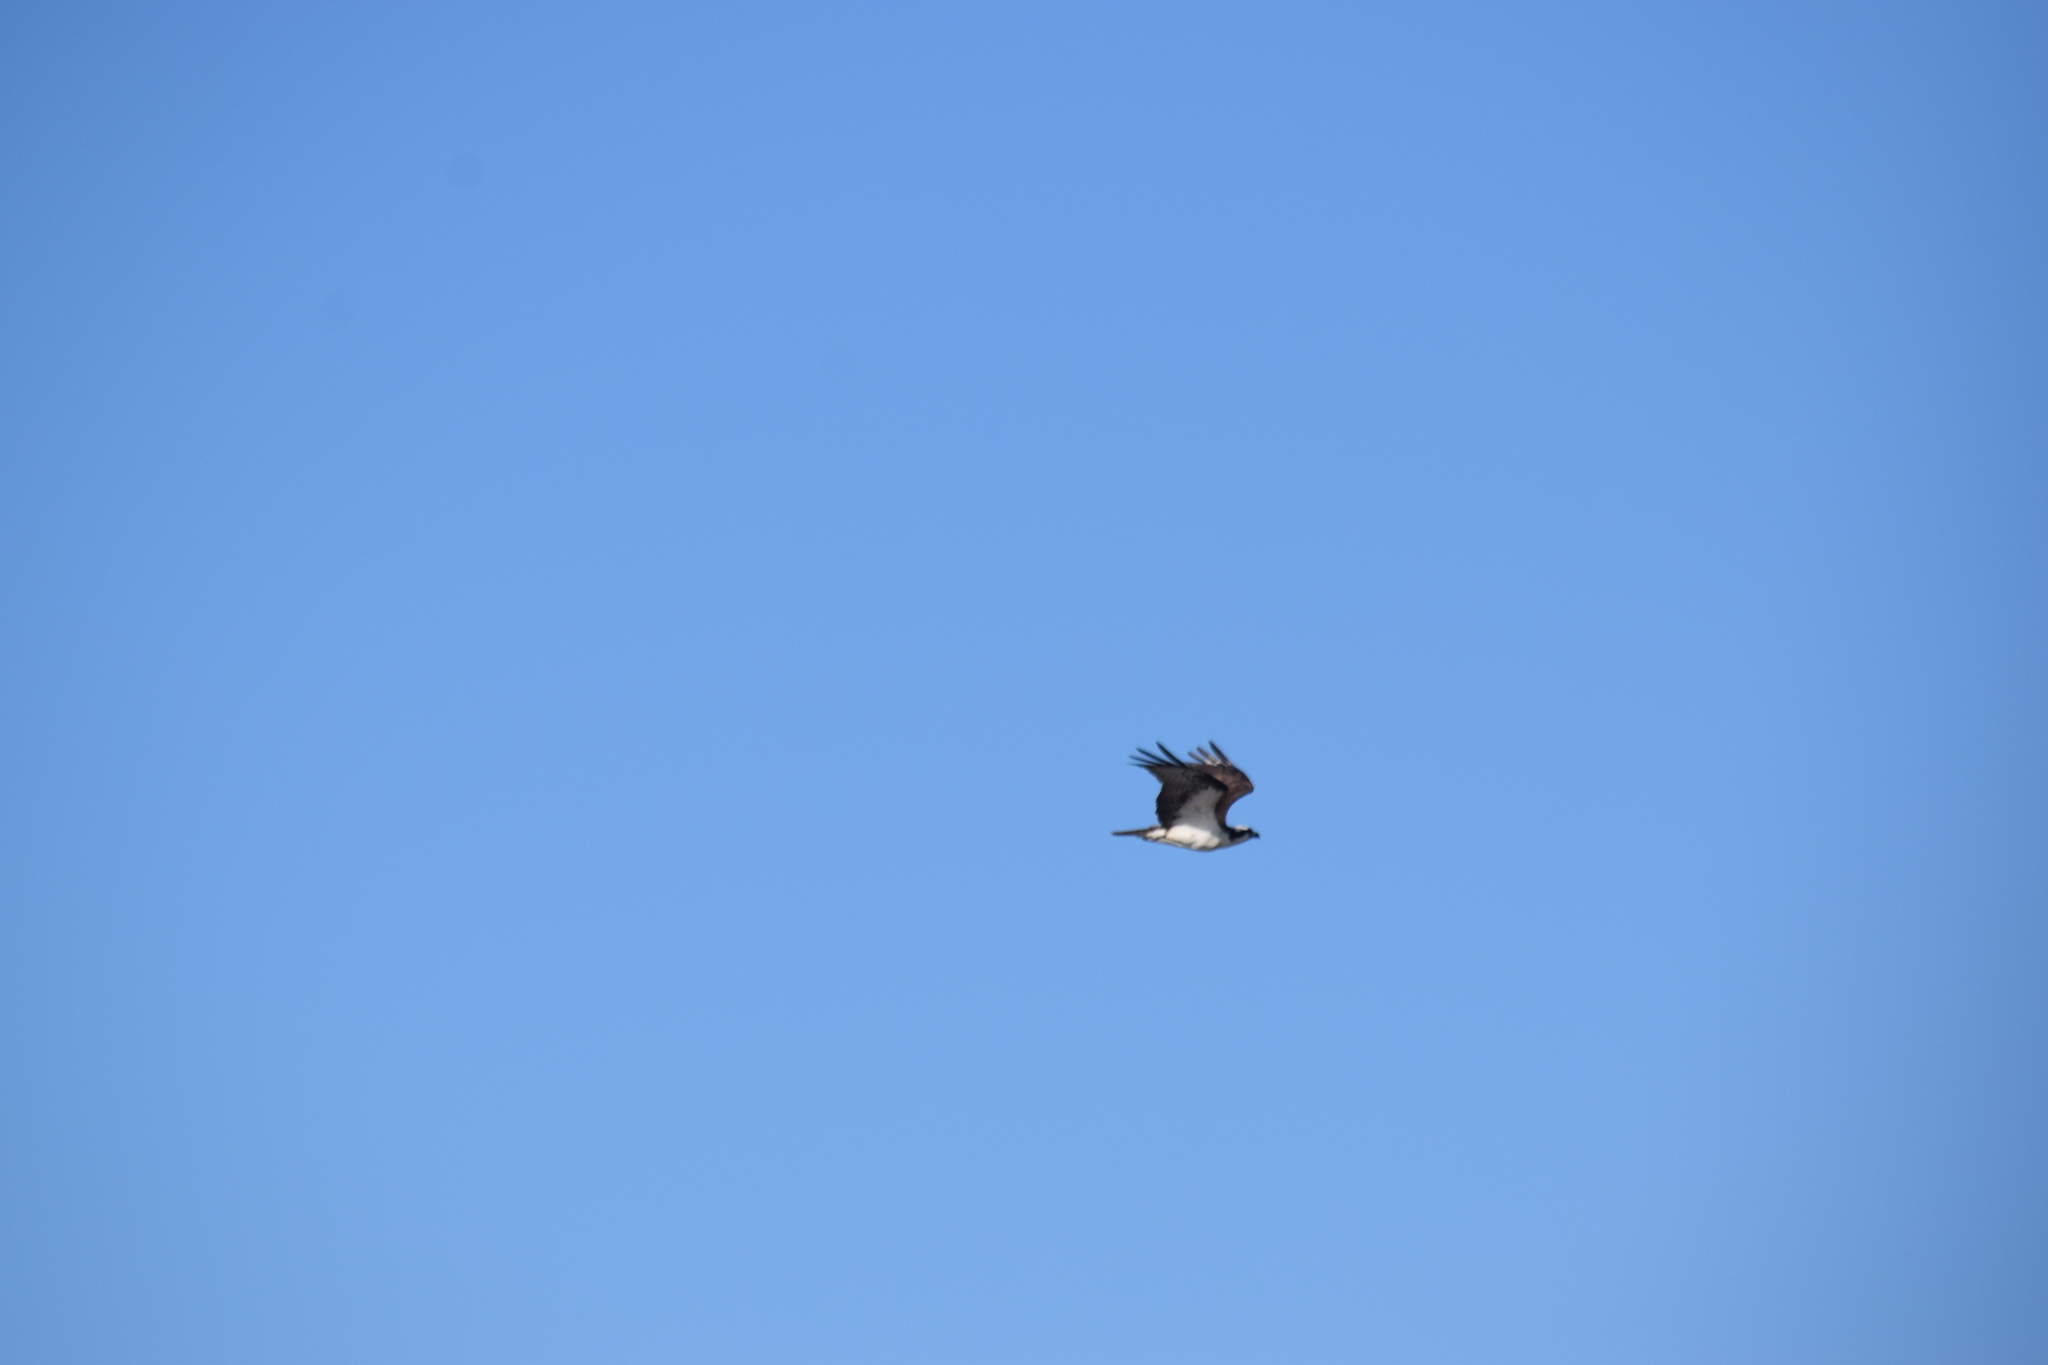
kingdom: Animalia
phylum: Chordata
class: Aves
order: Accipitriformes
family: Pandionidae
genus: Pandion
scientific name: Pandion haliaetus
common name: Osprey
